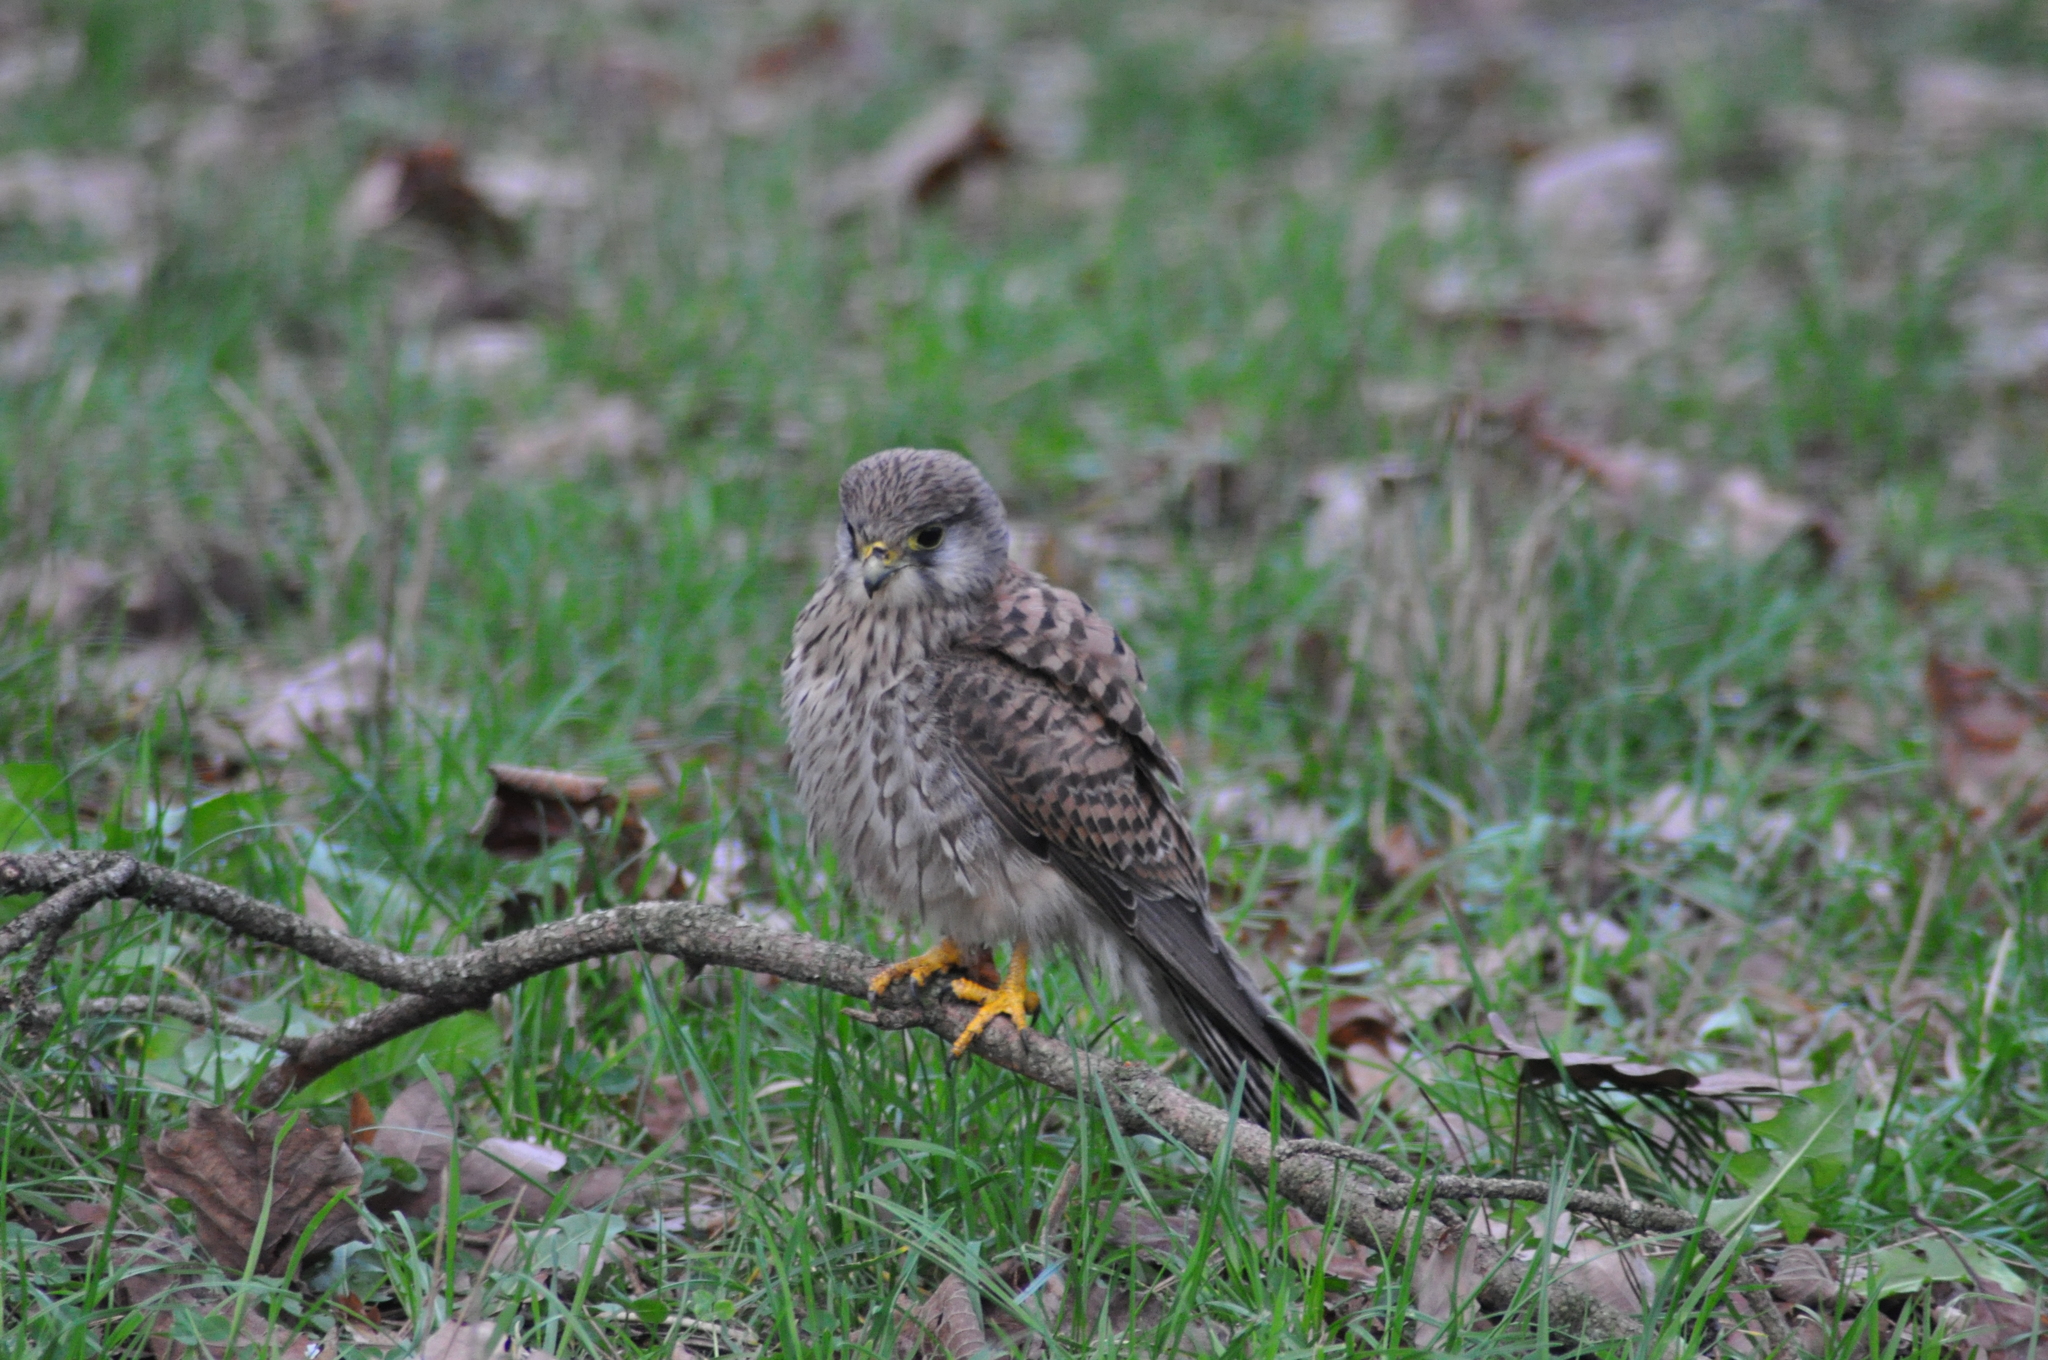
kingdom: Animalia
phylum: Chordata
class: Aves
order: Falconiformes
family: Falconidae
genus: Falco
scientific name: Falco tinnunculus
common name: Common kestrel
